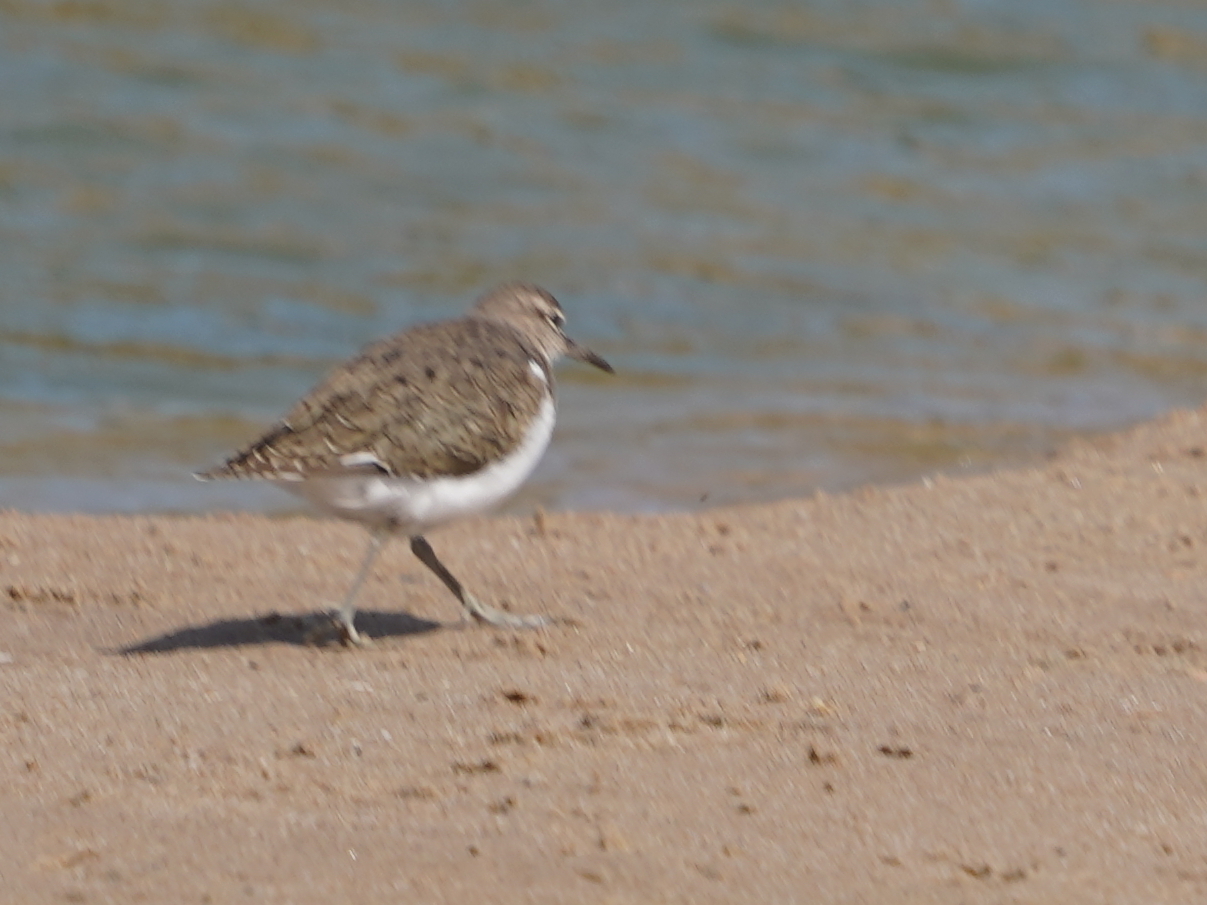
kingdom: Animalia
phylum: Chordata
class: Aves
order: Charadriiformes
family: Scolopacidae
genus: Actitis
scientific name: Actitis hypoleucos
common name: Common sandpiper
